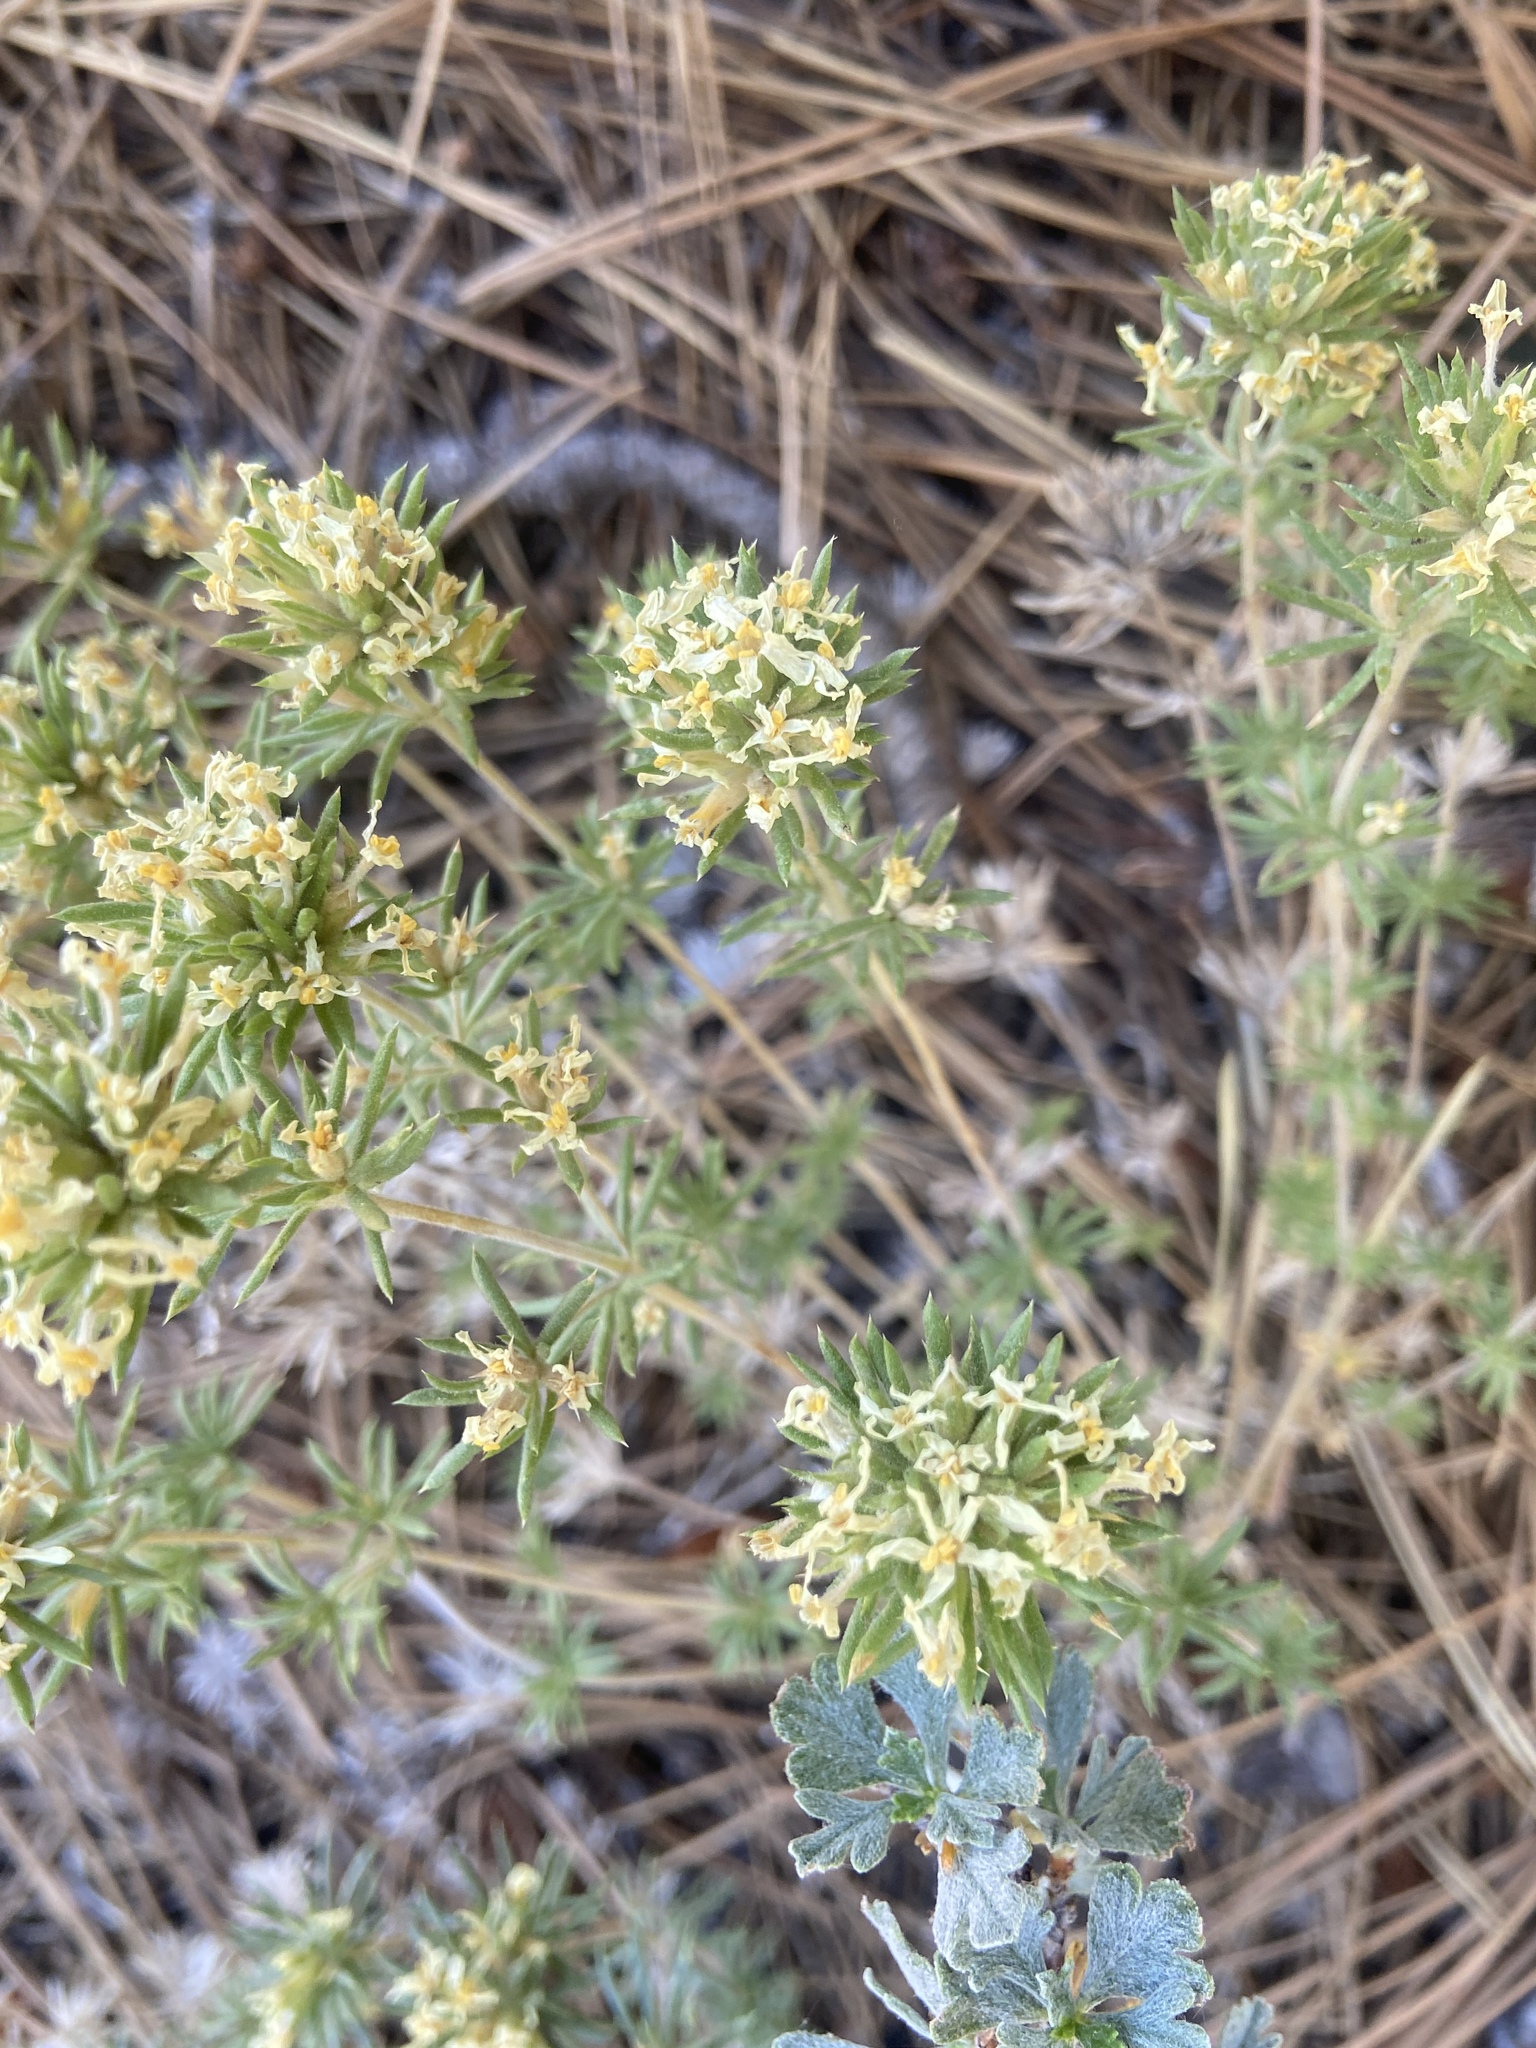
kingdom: Plantae
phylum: Tracheophyta
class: Magnoliopsida
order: Ericales
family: Polemoniaceae
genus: Leptosiphon
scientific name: Leptosiphon nuttallii
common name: Nuttall's linanthus
